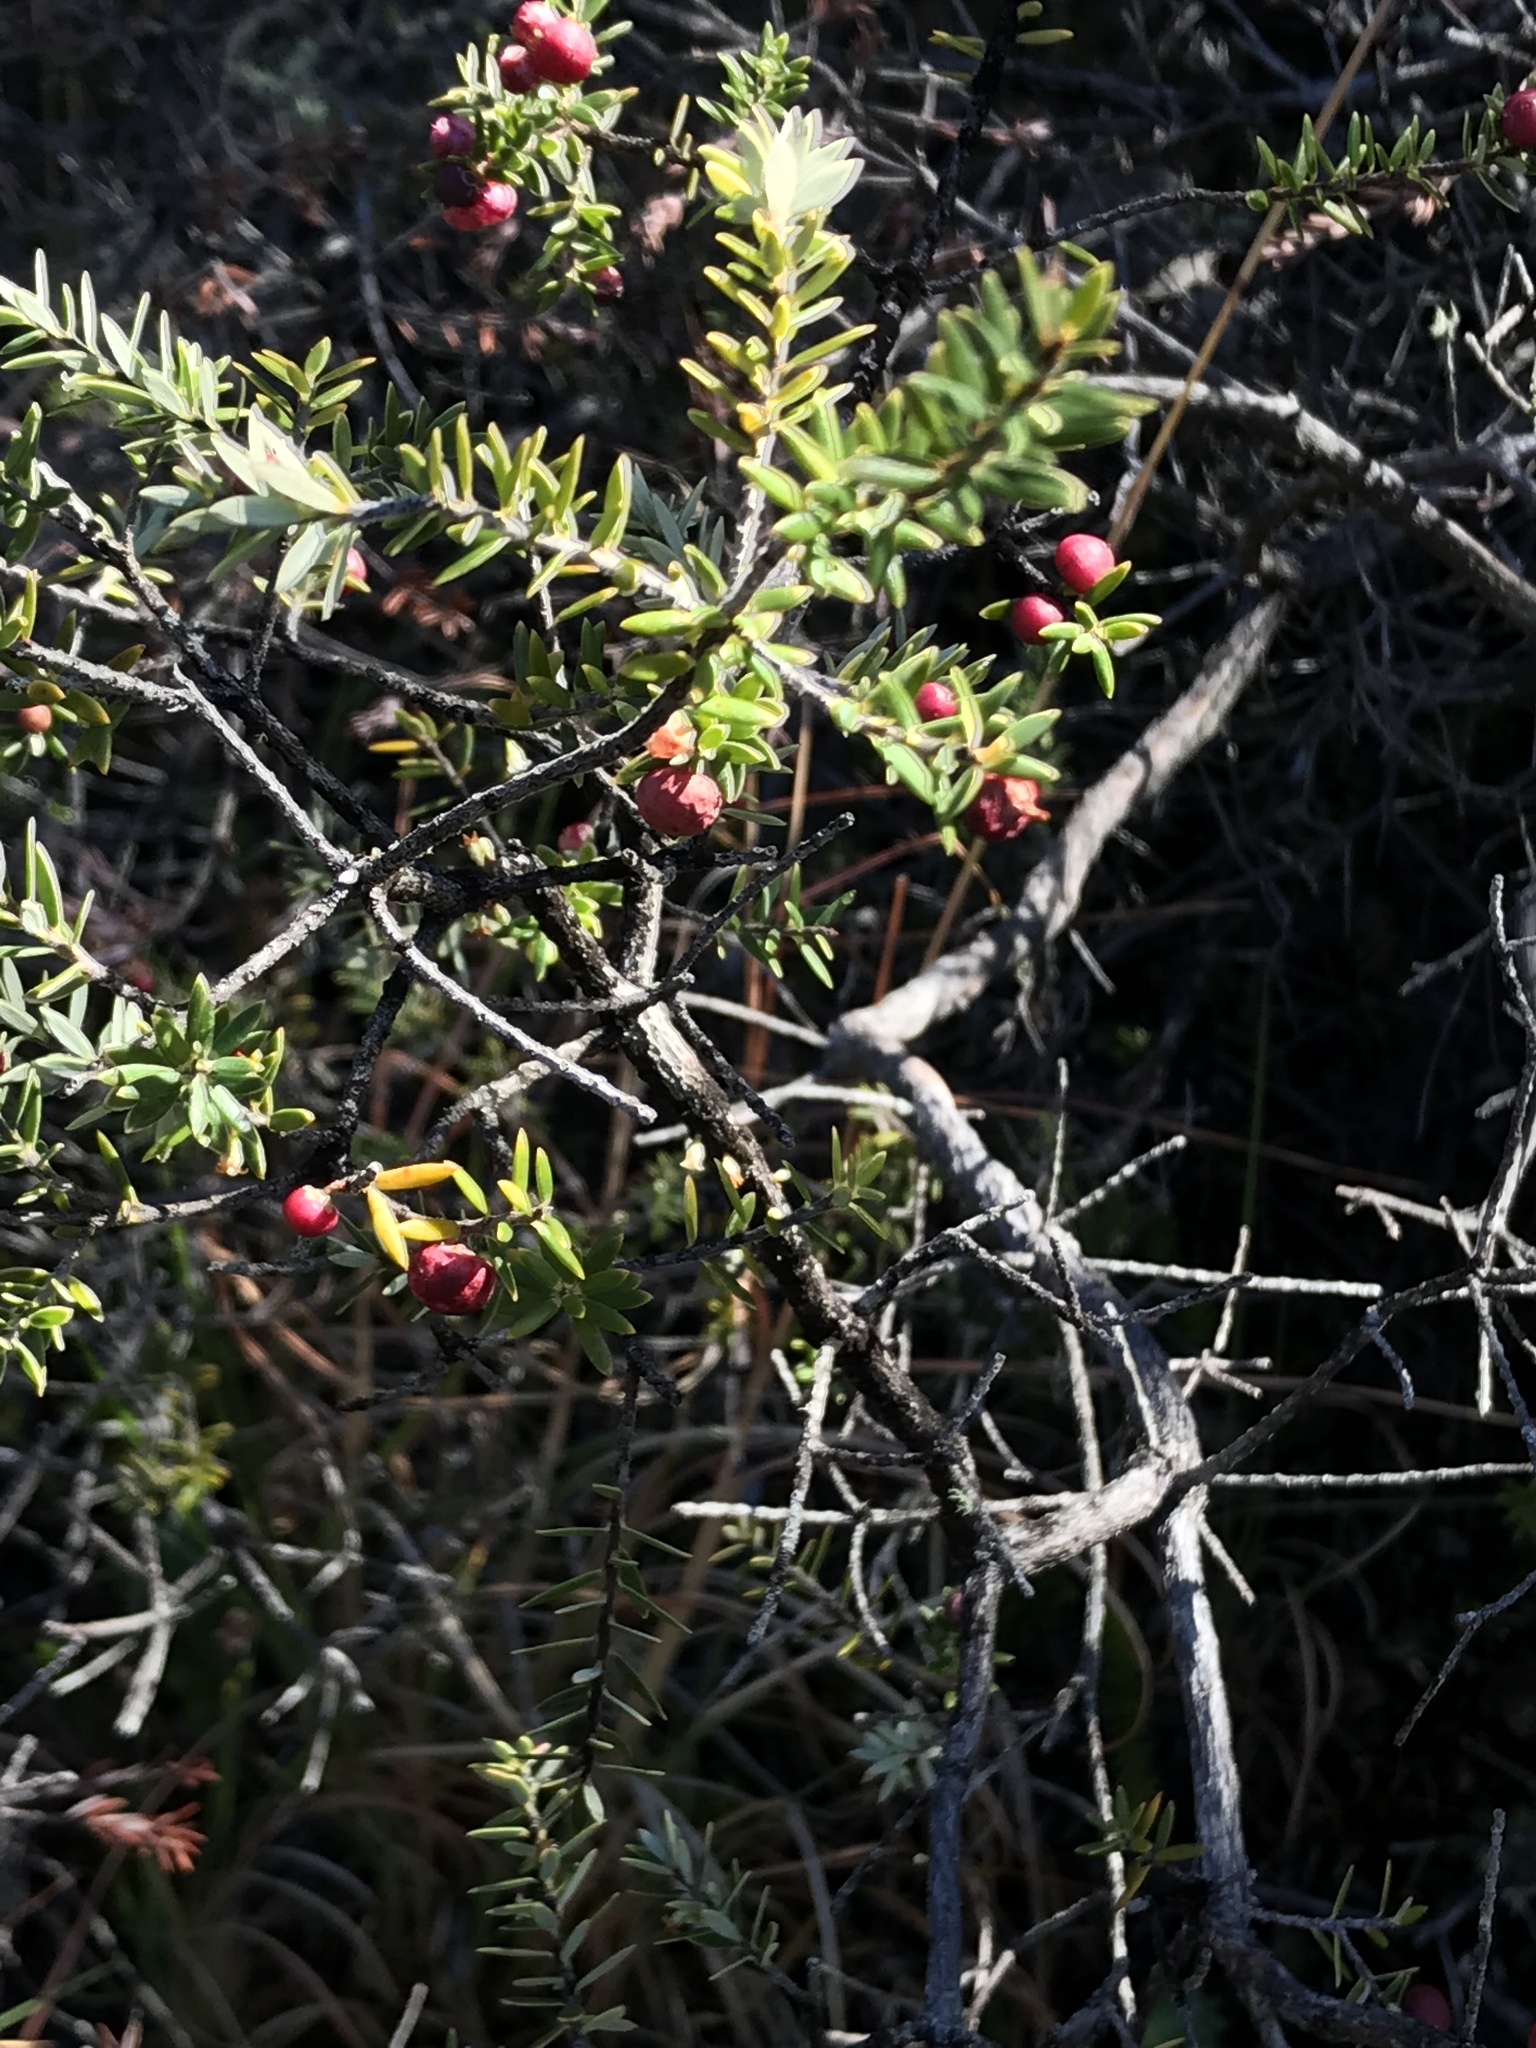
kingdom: Plantae
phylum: Tracheophyta
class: Magnoliopsida
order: Ericales
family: Ericaceae
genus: Leptecophylla
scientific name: Leptecophylla tameiameiae
